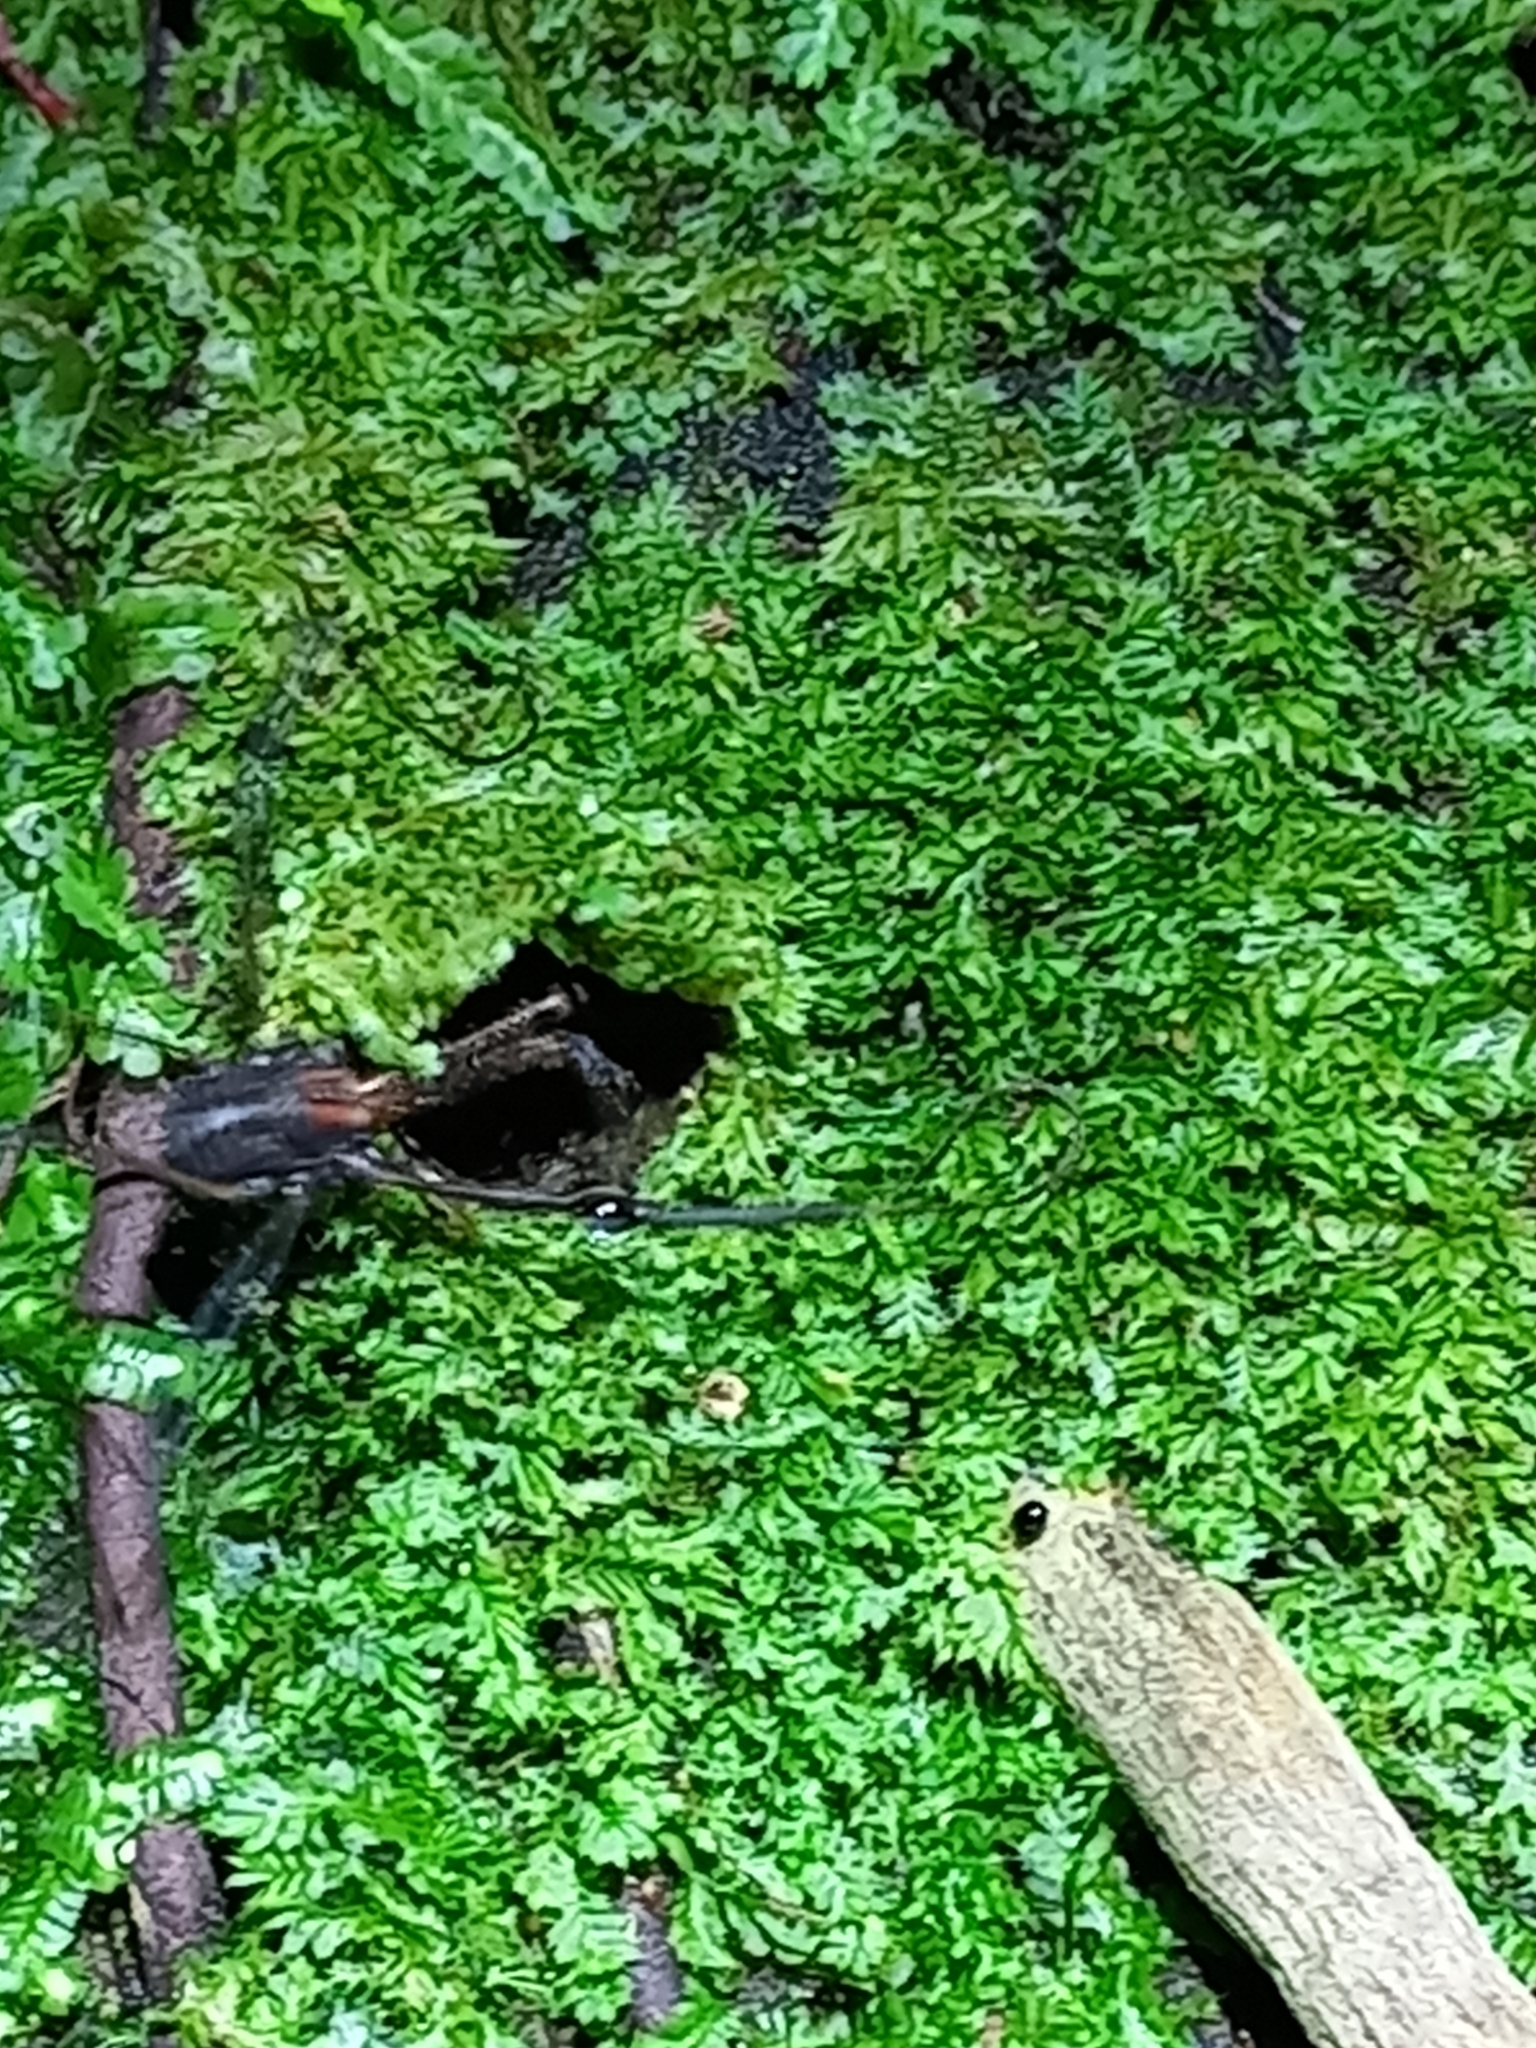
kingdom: Animalia
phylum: Arthropoda
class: Arachnida
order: Opiliones
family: Neopilionidae
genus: Forsteropsalis
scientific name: Forsteropsalis chiltoni
